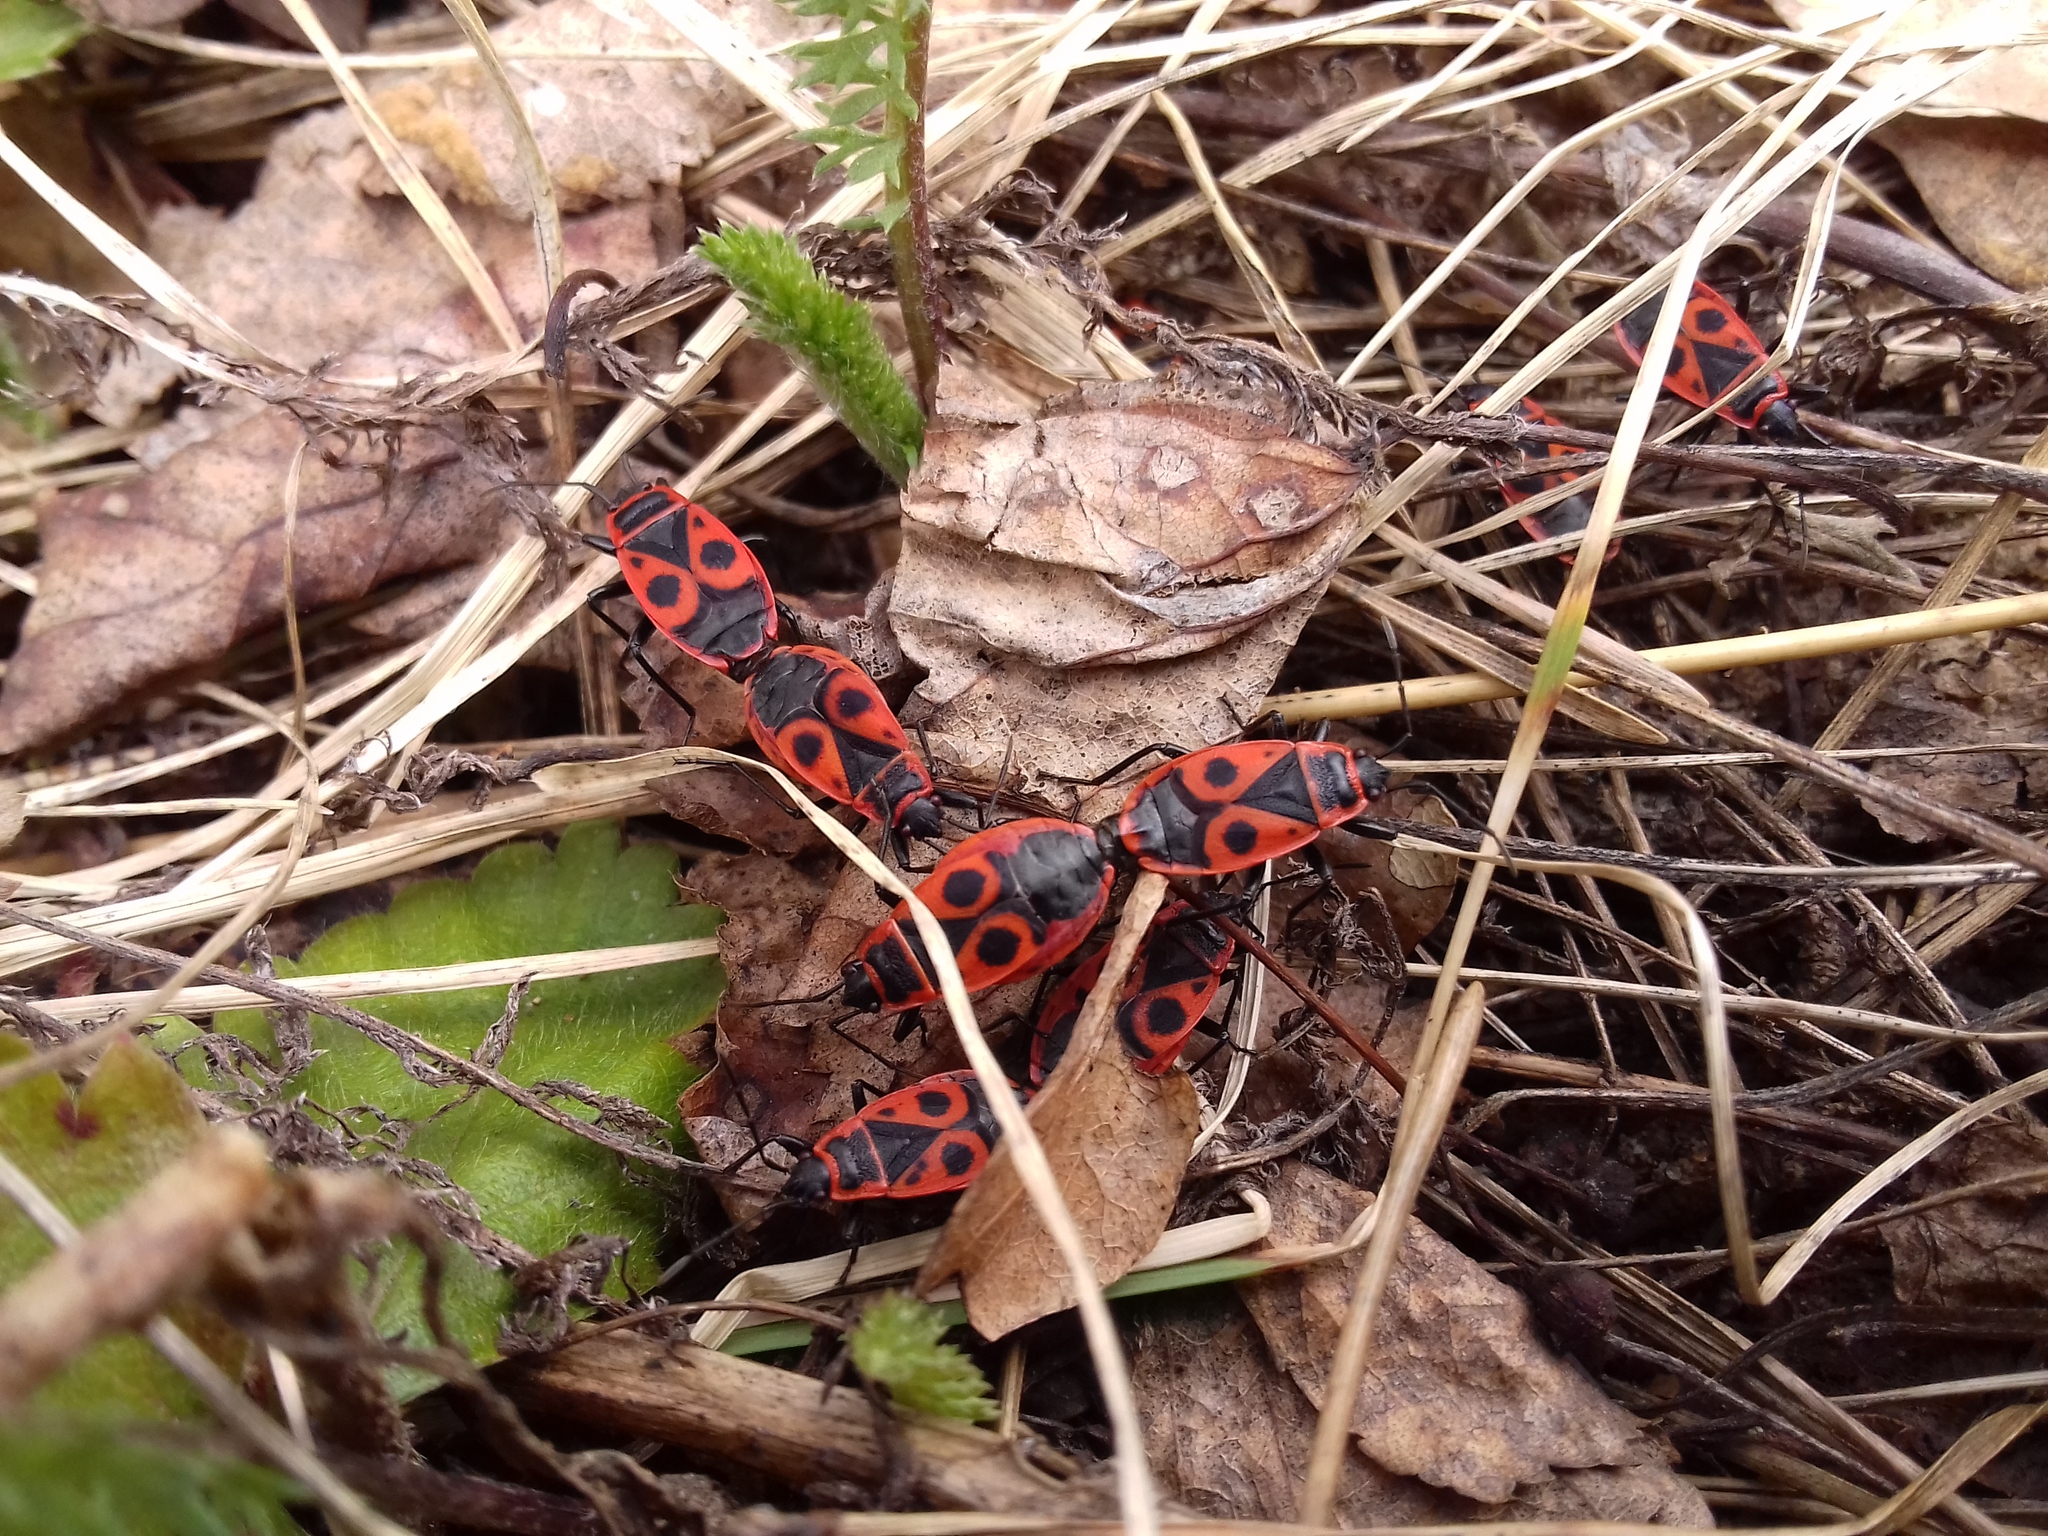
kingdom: Animalia
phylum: Arthropoda
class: Insecta
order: Hemiptera
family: Pyrrhocoridae
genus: Pyrrhocoris
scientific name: Pyrrhocoris apterus
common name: Firebug
